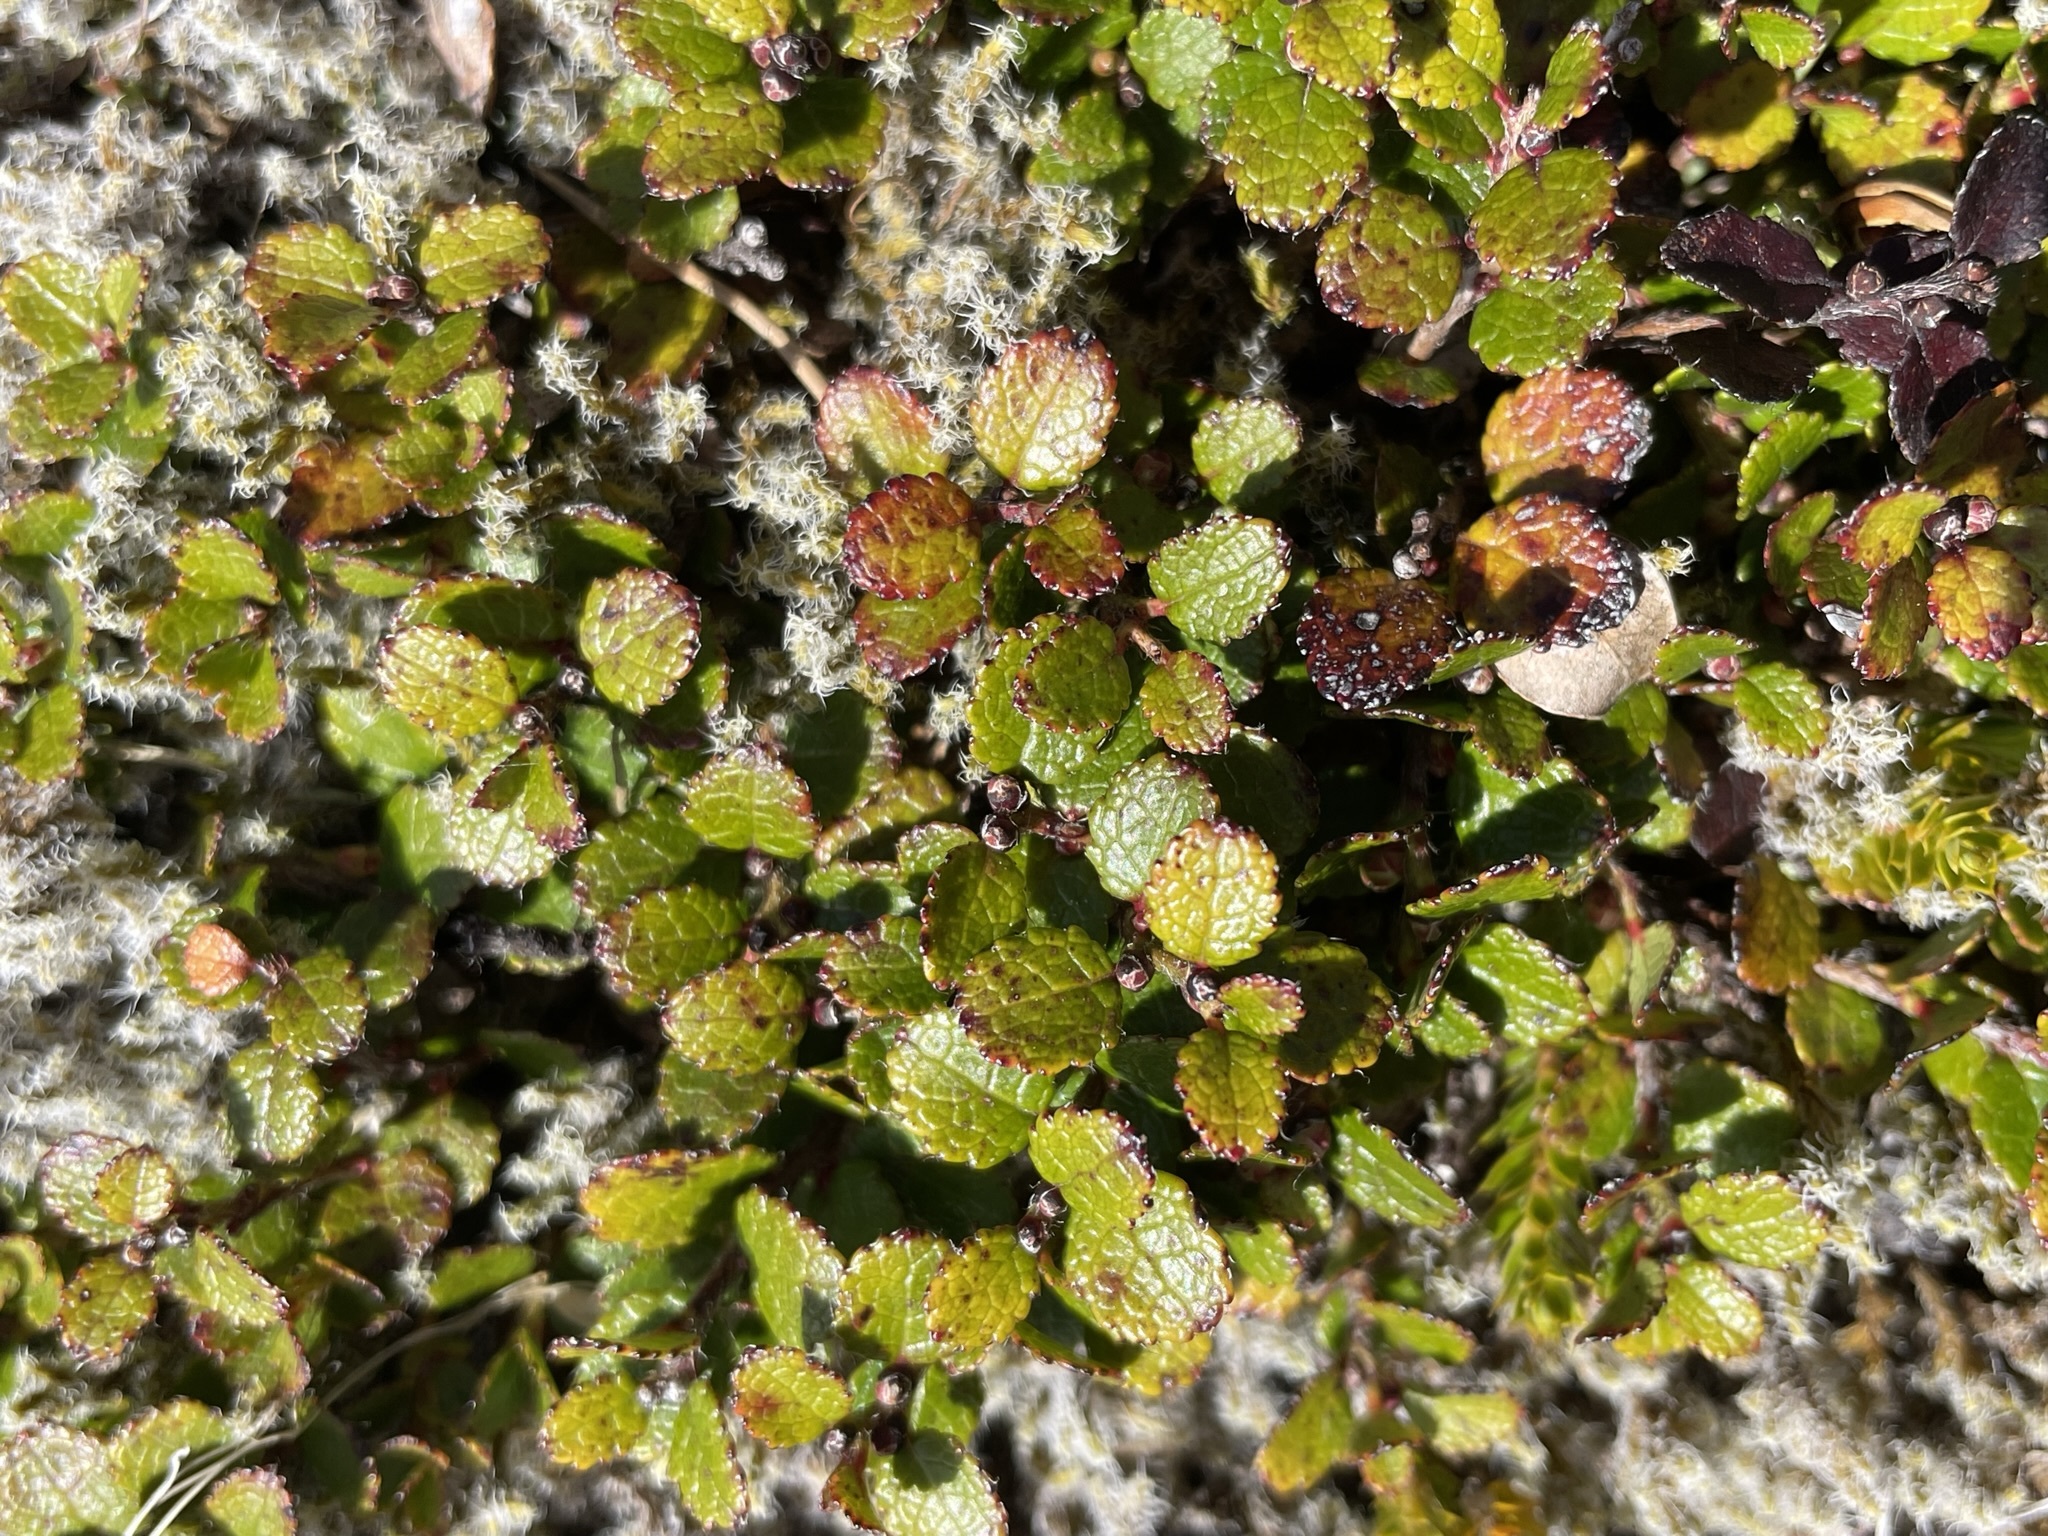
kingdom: Plantae
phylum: Tracheophyta
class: Magnoliopsida
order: Ericales
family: Ericaceae
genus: Gaultheria
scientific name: Gaultheria depressa
